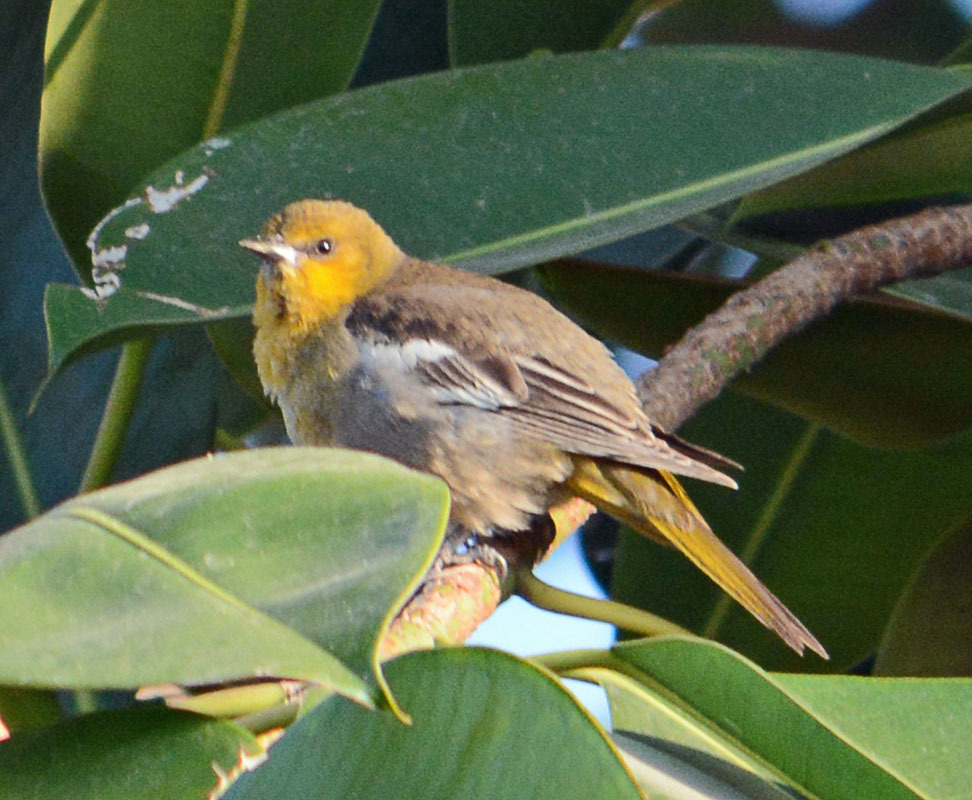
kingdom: Animalia
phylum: Chordata
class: Aves
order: Passeriformes
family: Icteridae
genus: Icterus
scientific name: Icterus abeillei
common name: Black-backed oriole
